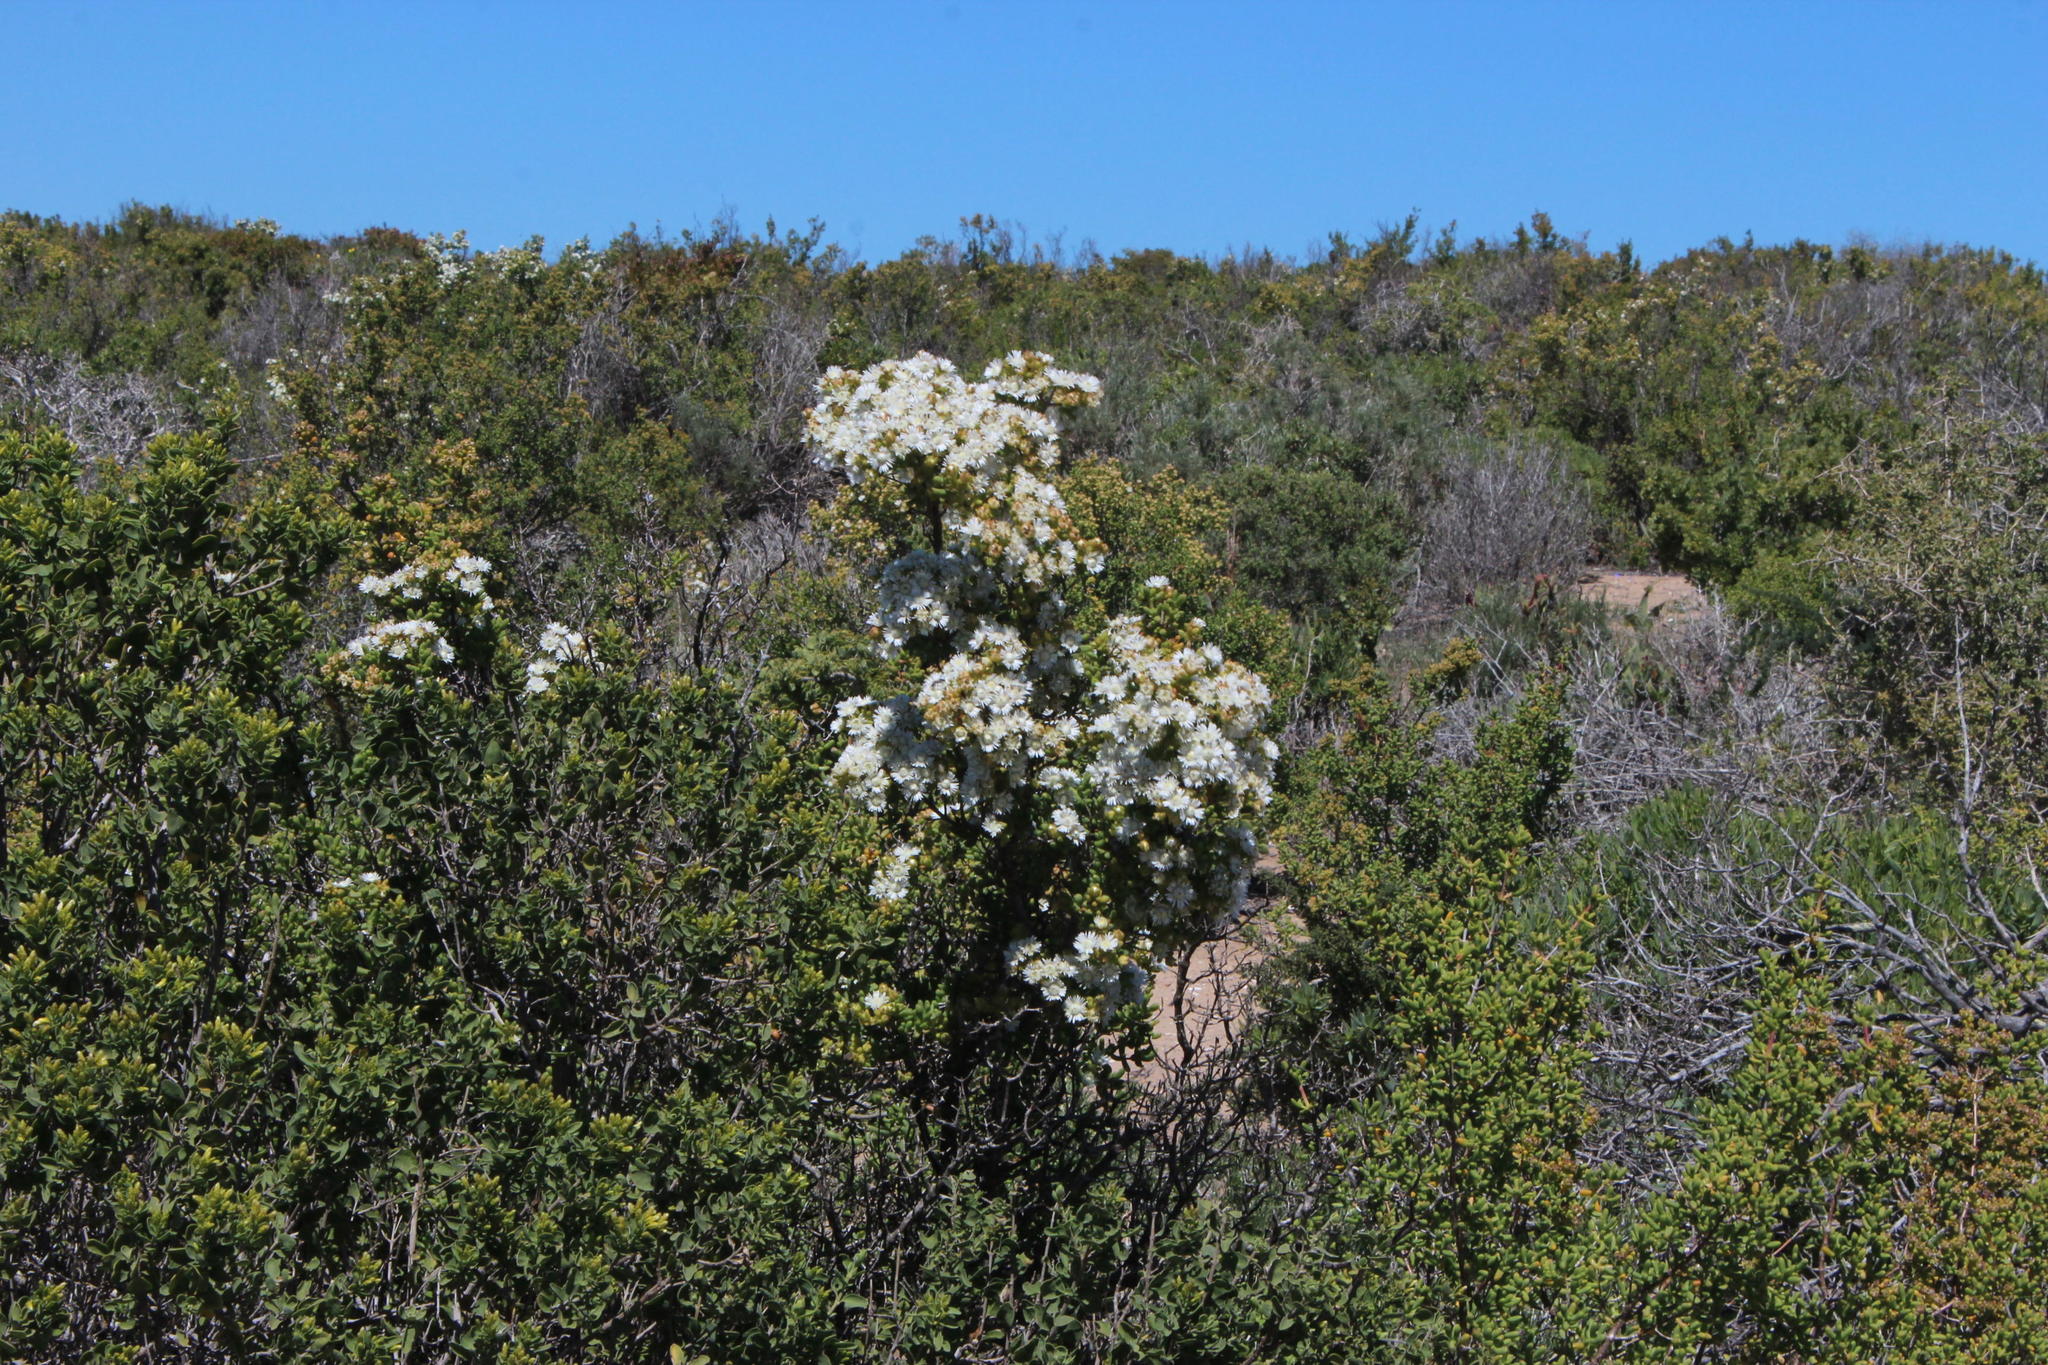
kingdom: Plantae
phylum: Tracheophyta
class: Magnoliopsida
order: Caryophyllales
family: Aizoaceae
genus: Stoeberia
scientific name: Stoeberia utilis
